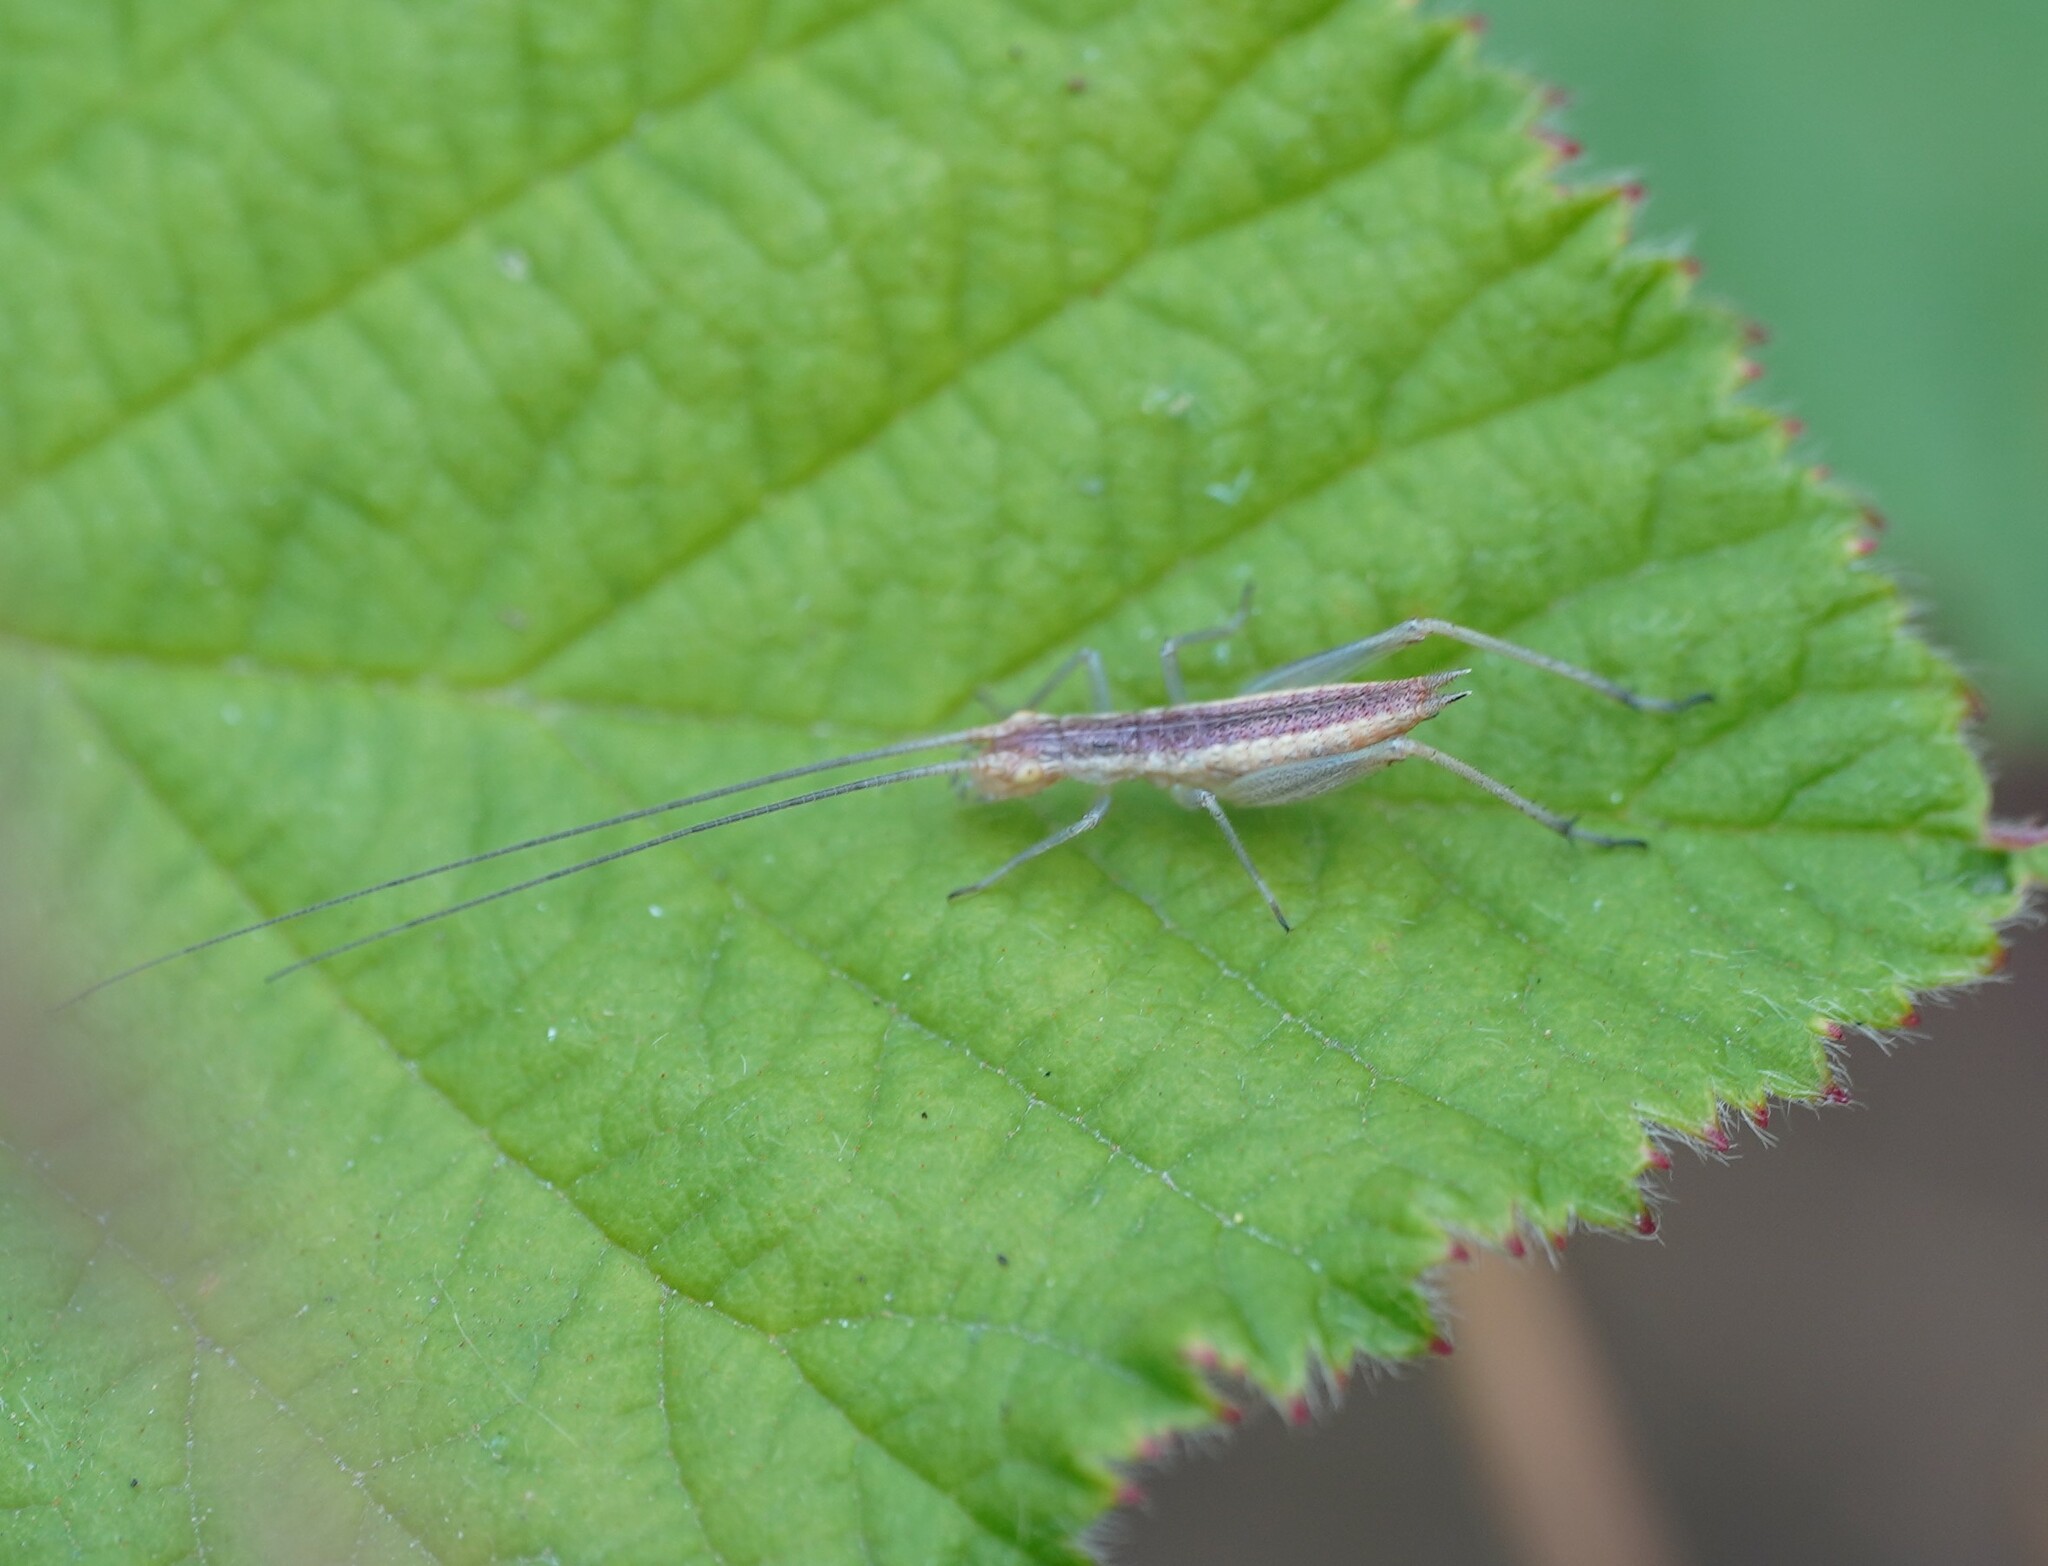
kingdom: Animalia
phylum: Arthropoda
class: Insecta
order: Orthoptera
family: Gryllidae
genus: Oecanthus
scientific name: Oecanthus pellucens
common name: Tree-cricket
